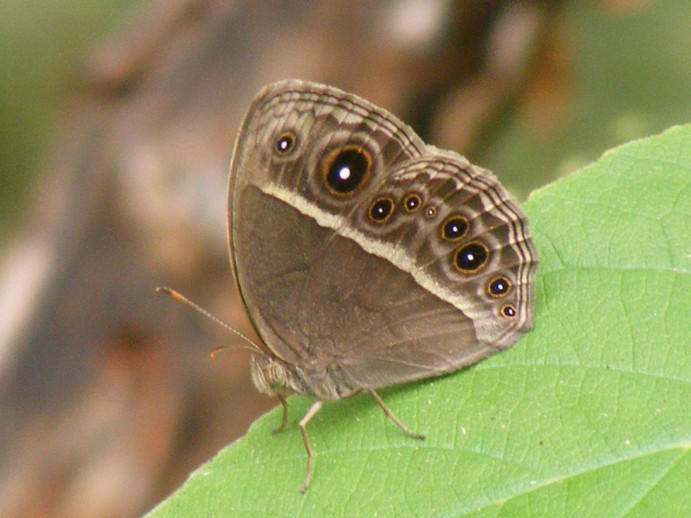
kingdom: Animalia
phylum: Arthropoda
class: Insecta
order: Lepidoptera
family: Nymphalidae
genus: Mycalesis
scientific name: Mycalesis rhacotis
